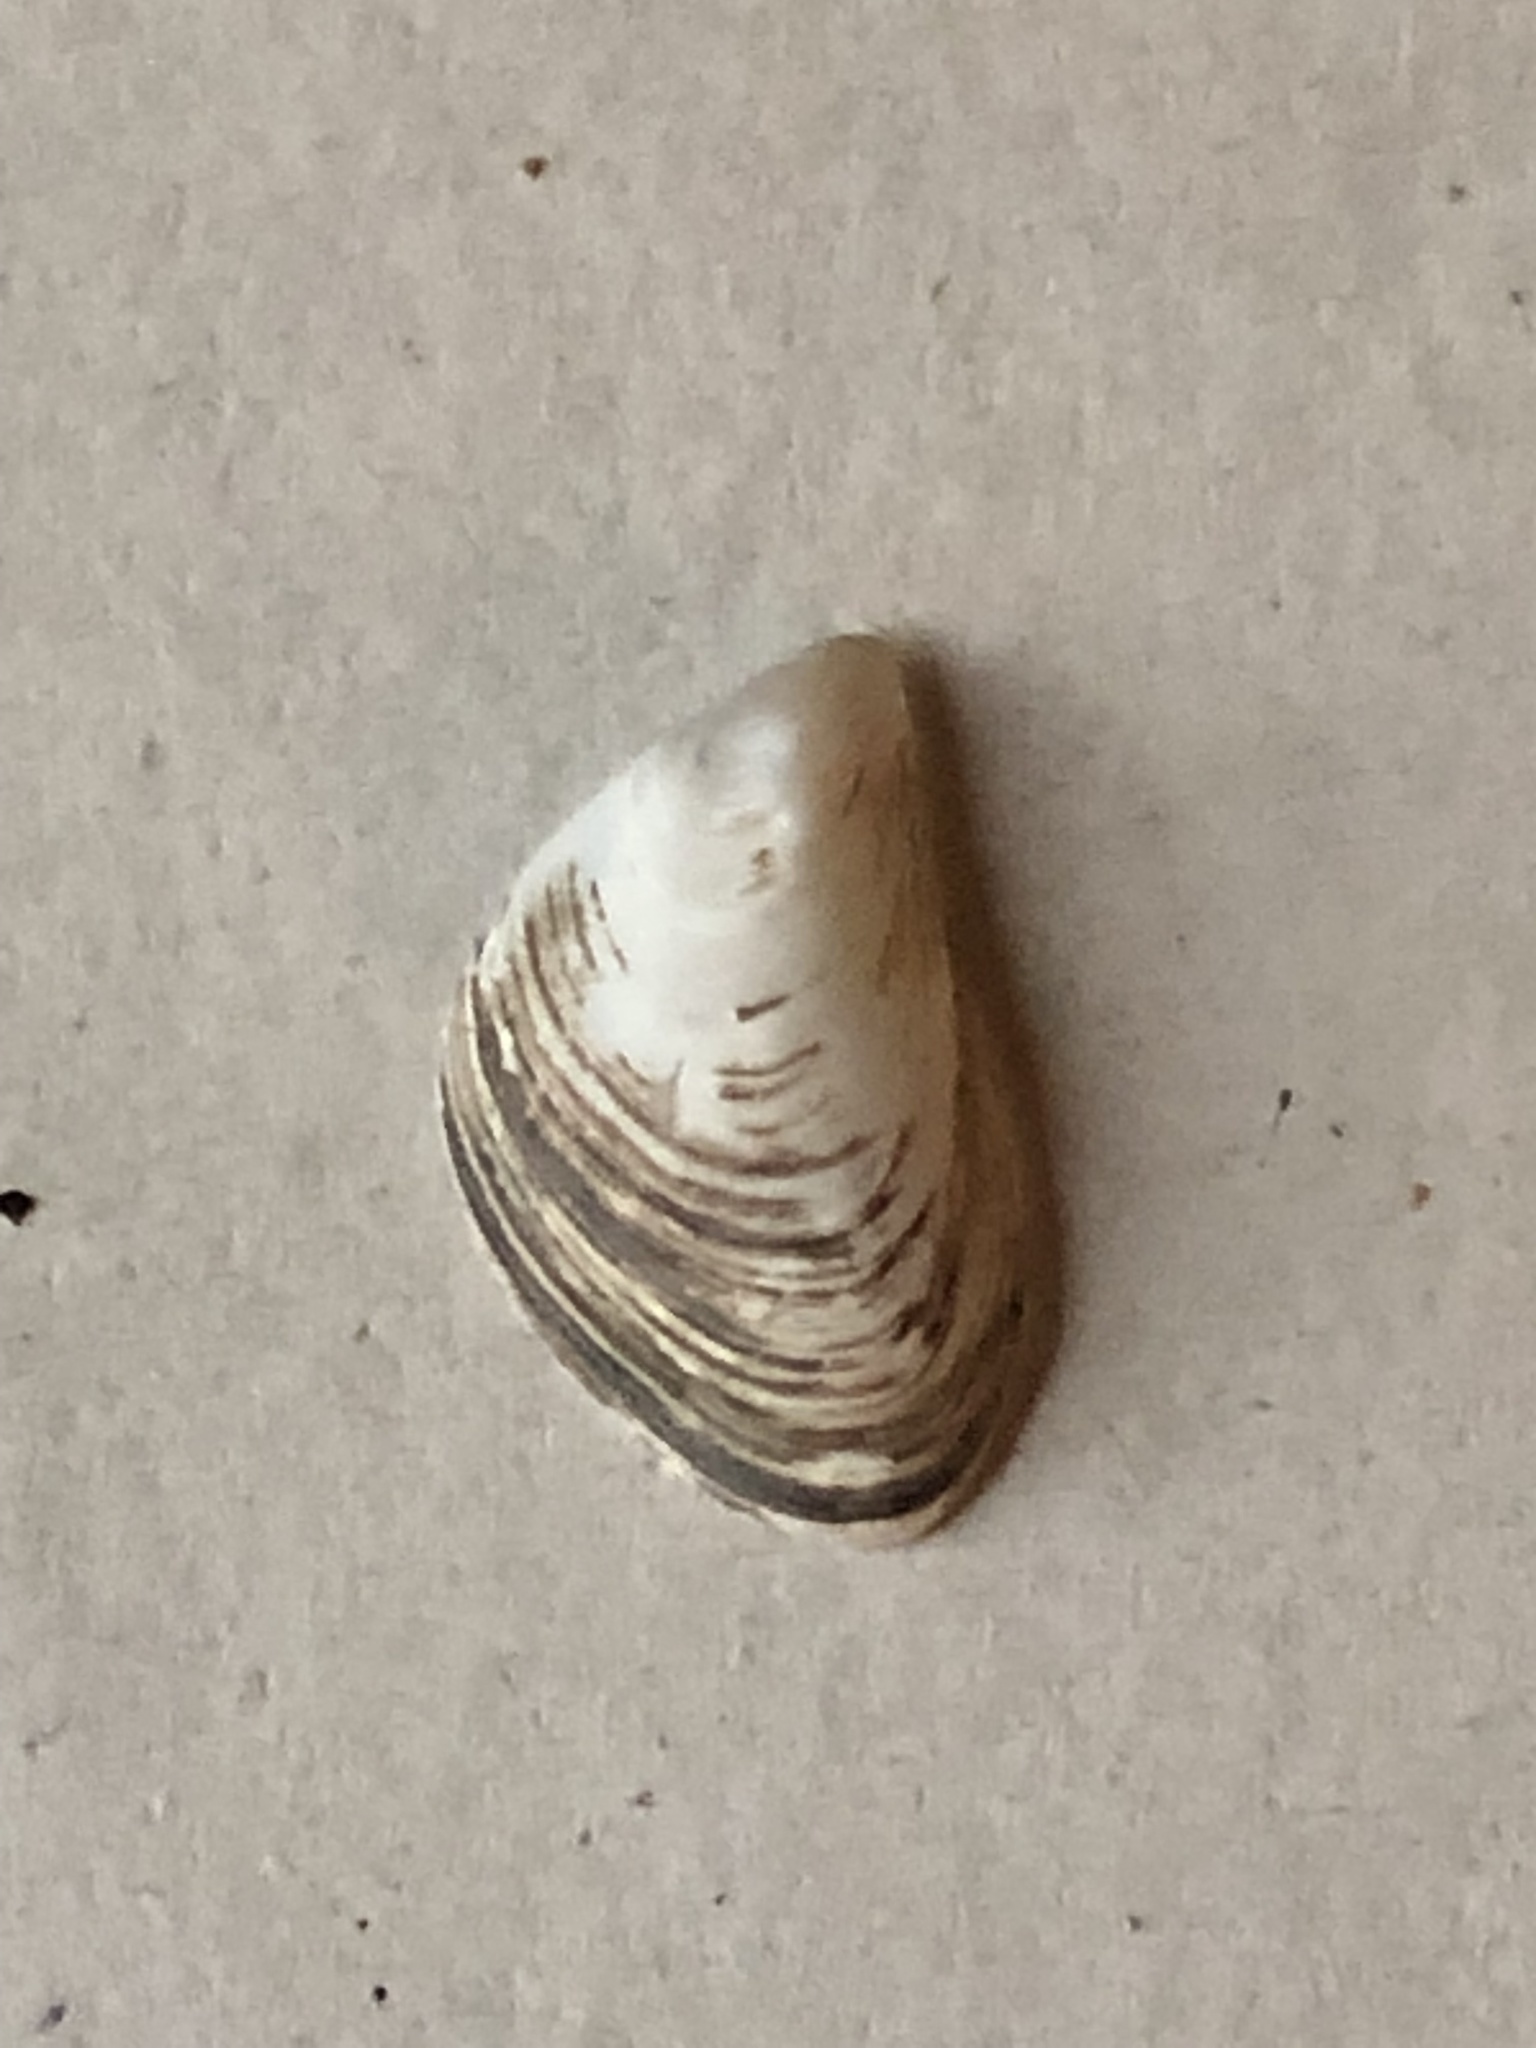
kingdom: Animalia
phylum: Mollusca
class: Bivalvia
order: Myida
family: Dreissenidae
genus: Dreissena
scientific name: Dreissena bugensis
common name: Quagga mussel
